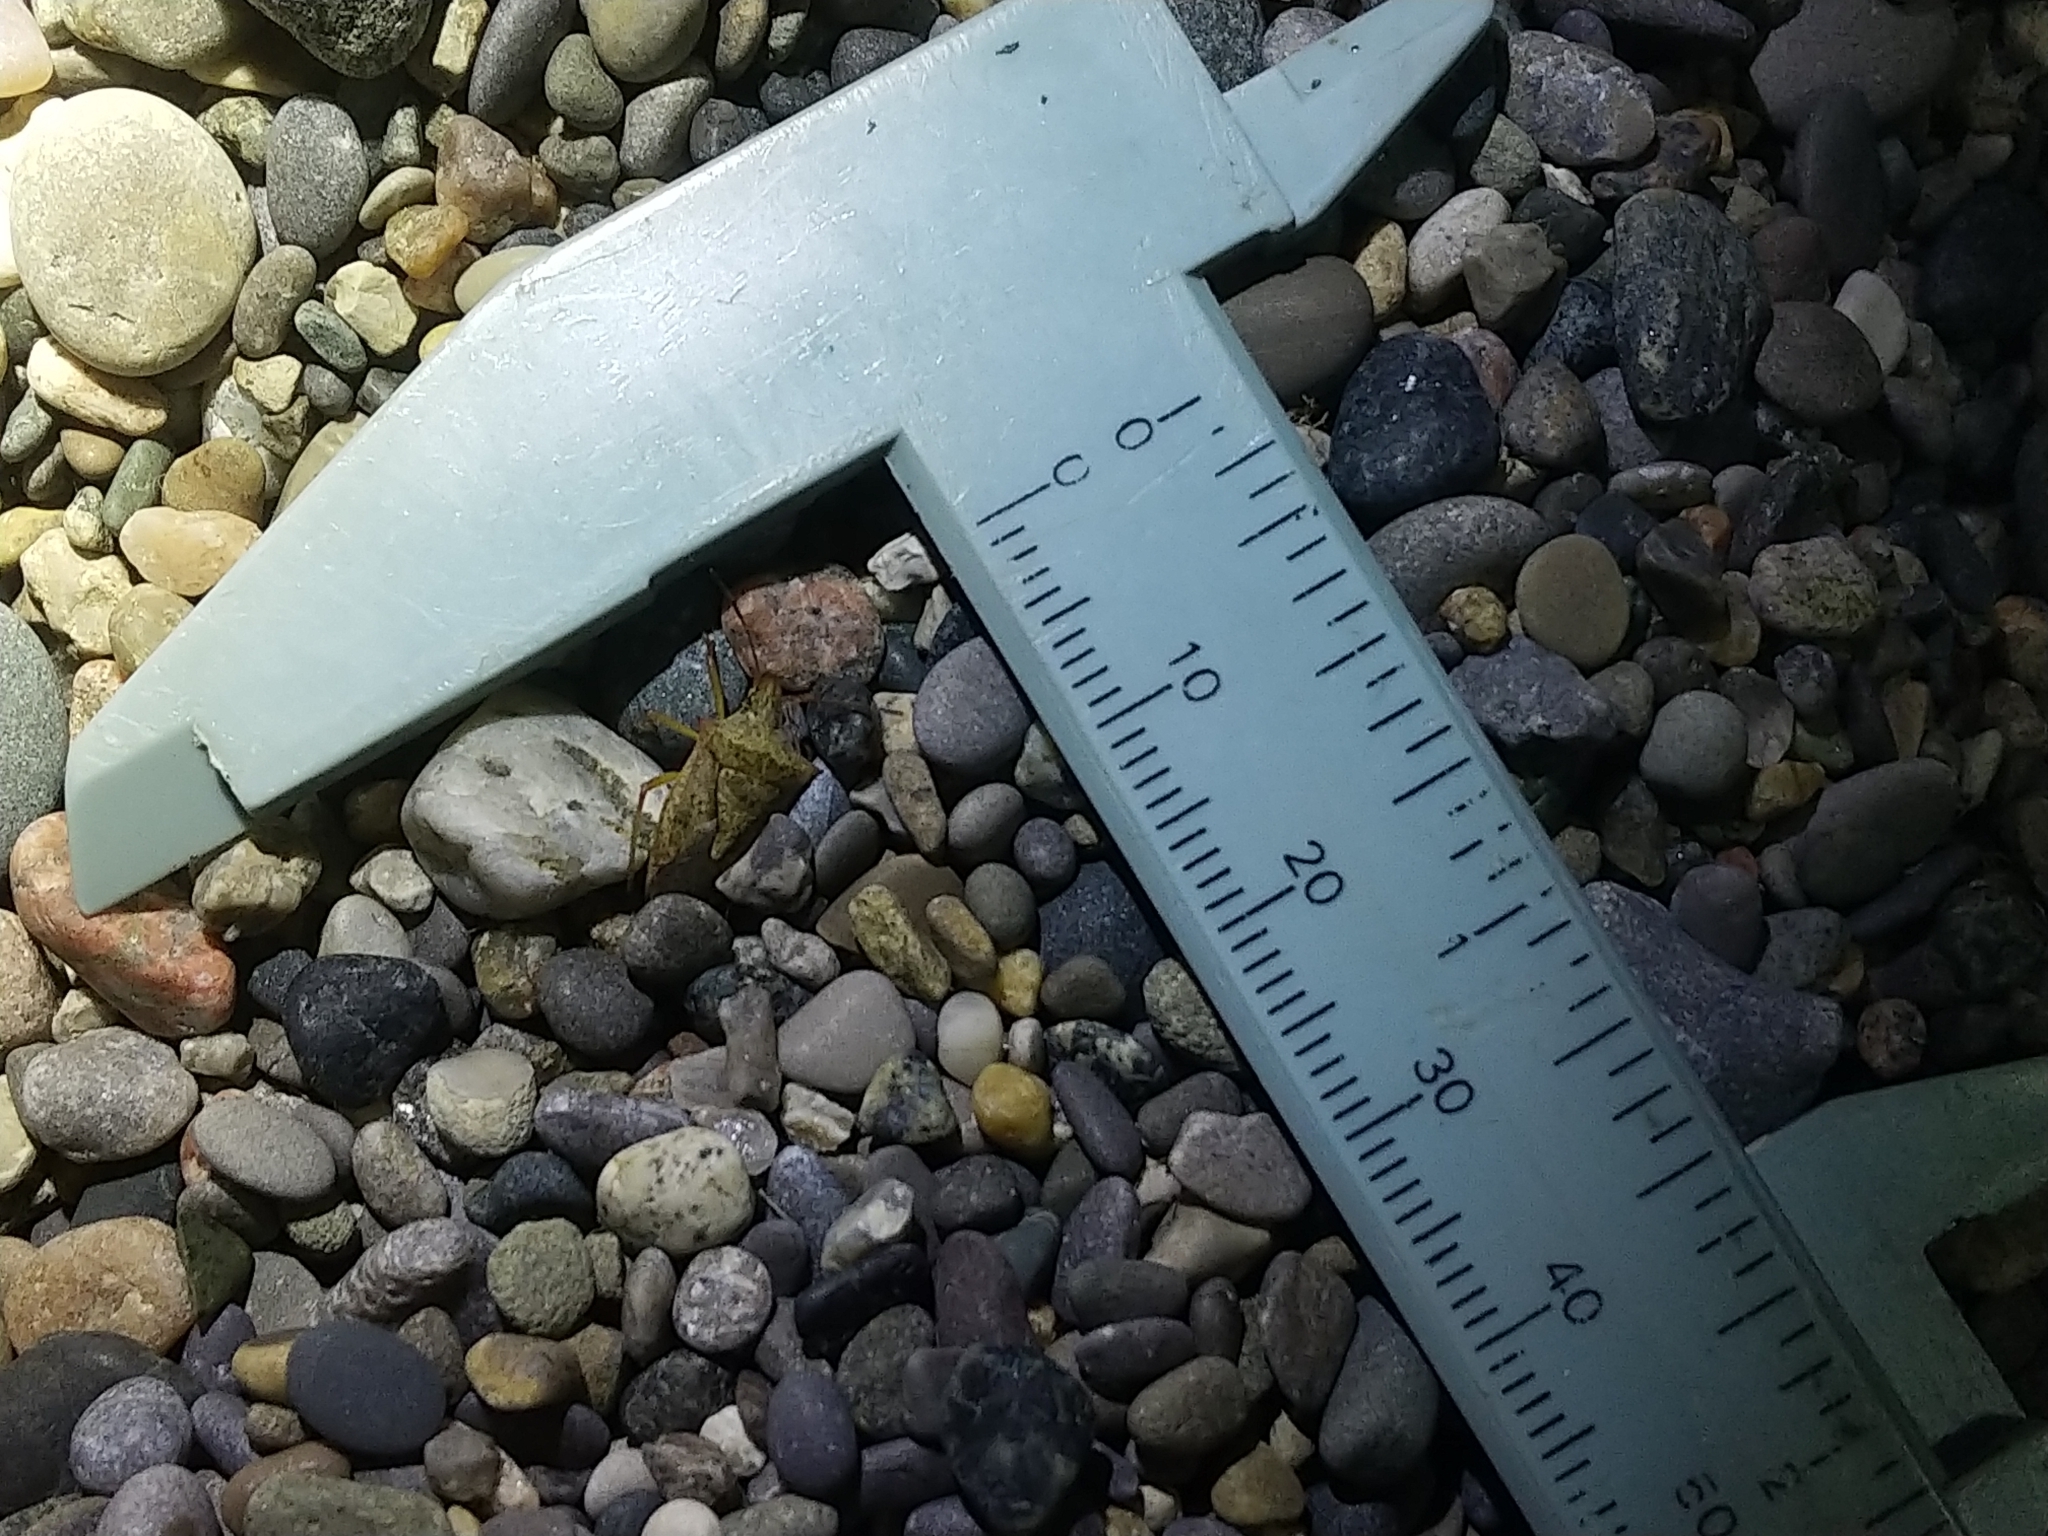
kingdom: Animalia
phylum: Arthropoda
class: Insecta
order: Hemiptera
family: Pentatomidae
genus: Euschistus
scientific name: Euschistus variolarius
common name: Onespotted stink bug
